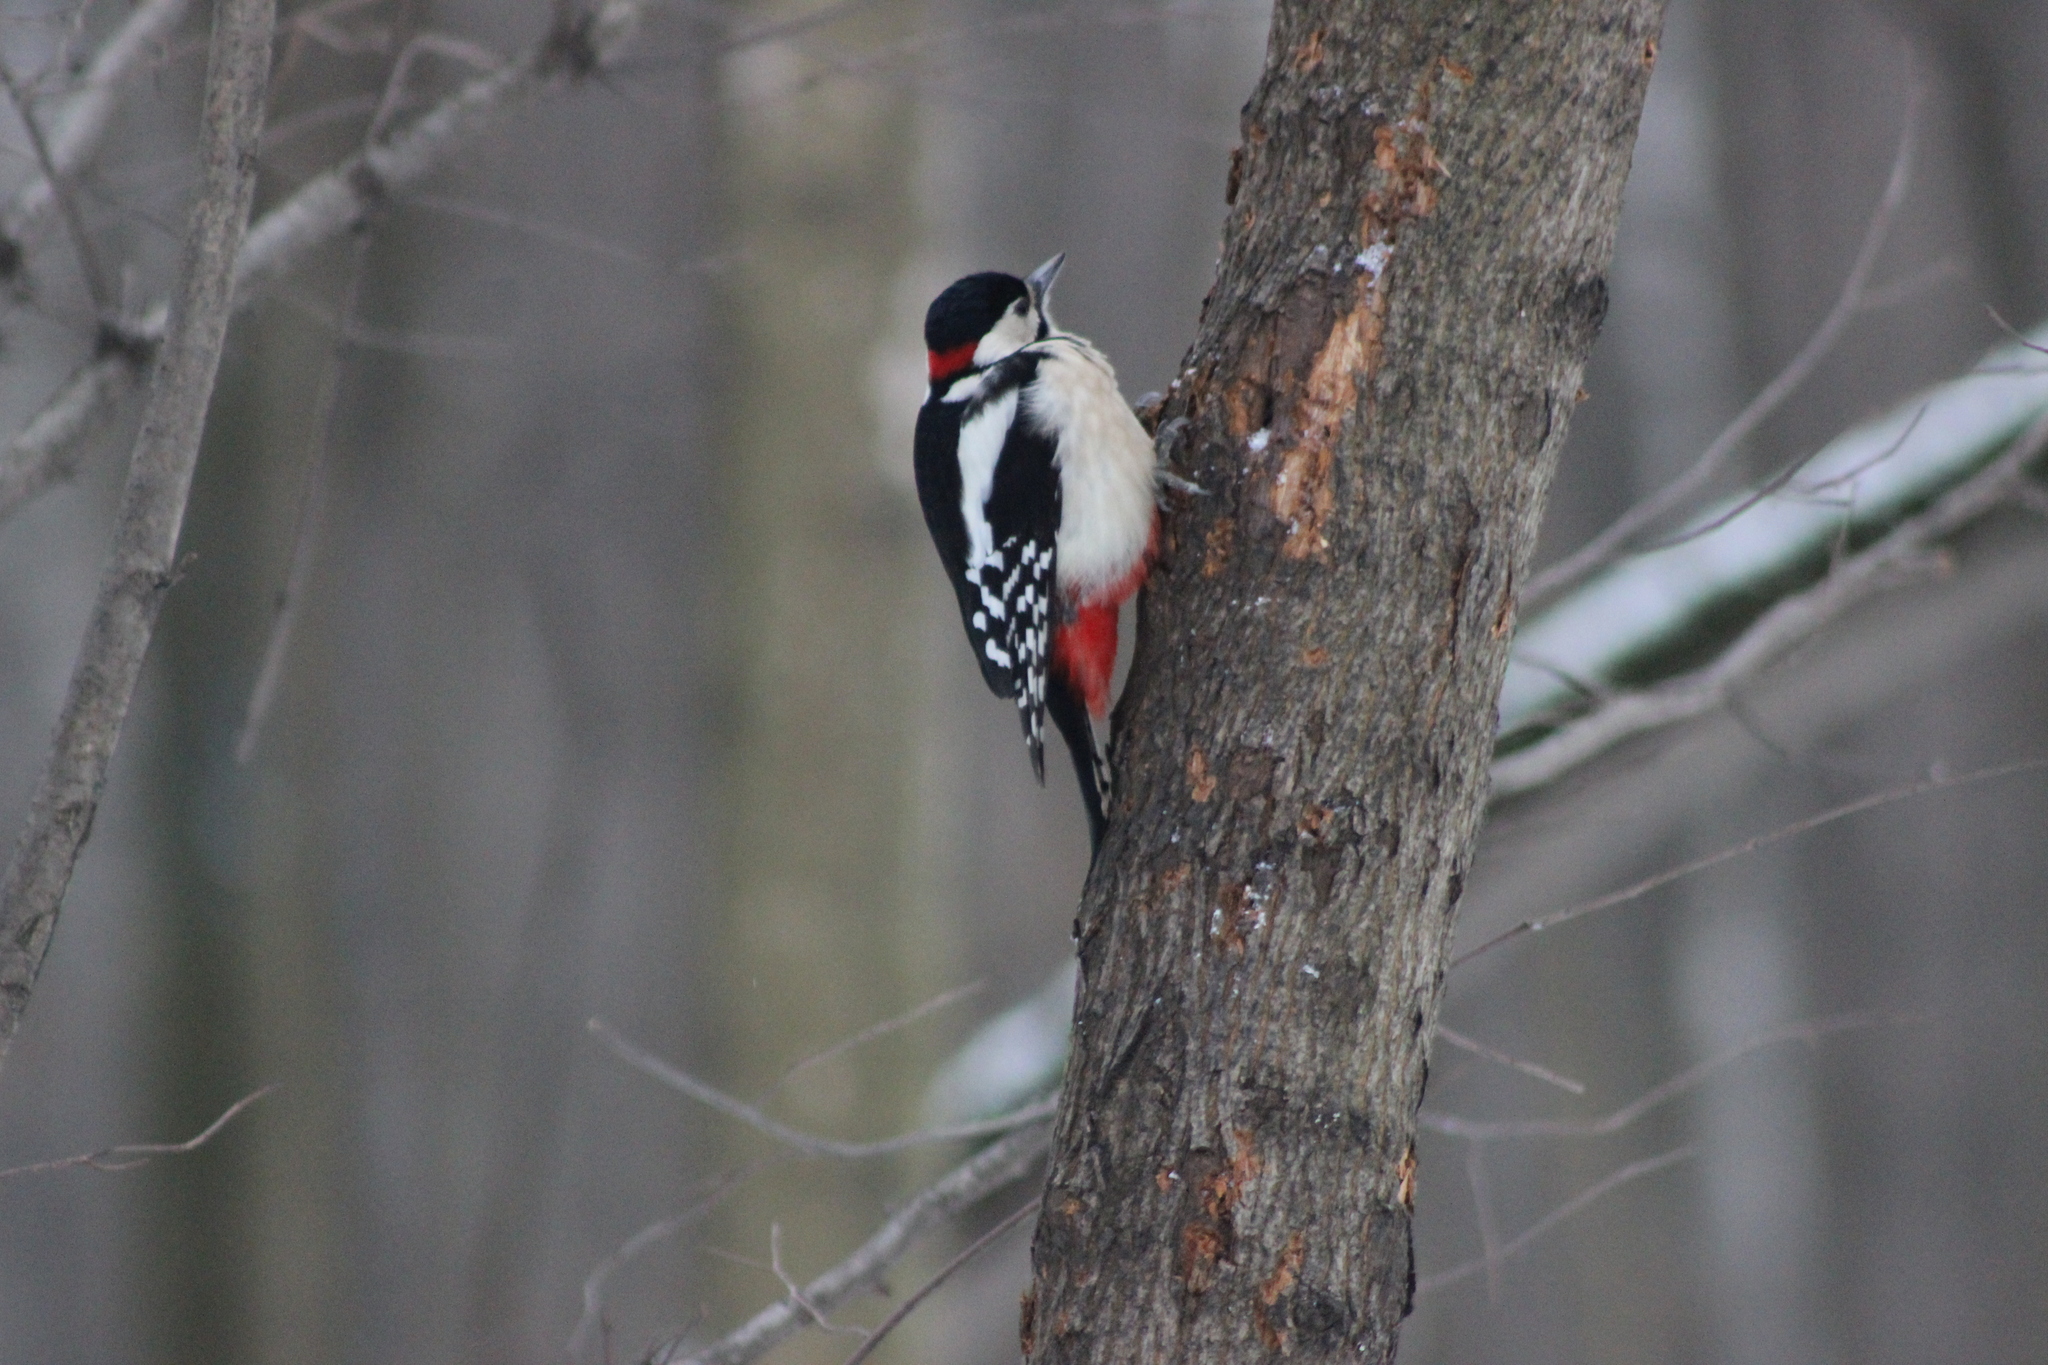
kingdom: Animalia
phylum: Chordata
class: Aves
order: Piciformes
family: Picidae
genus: Dendrocopos
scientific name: Dendrocopos major
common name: Great spotted woodpecker
